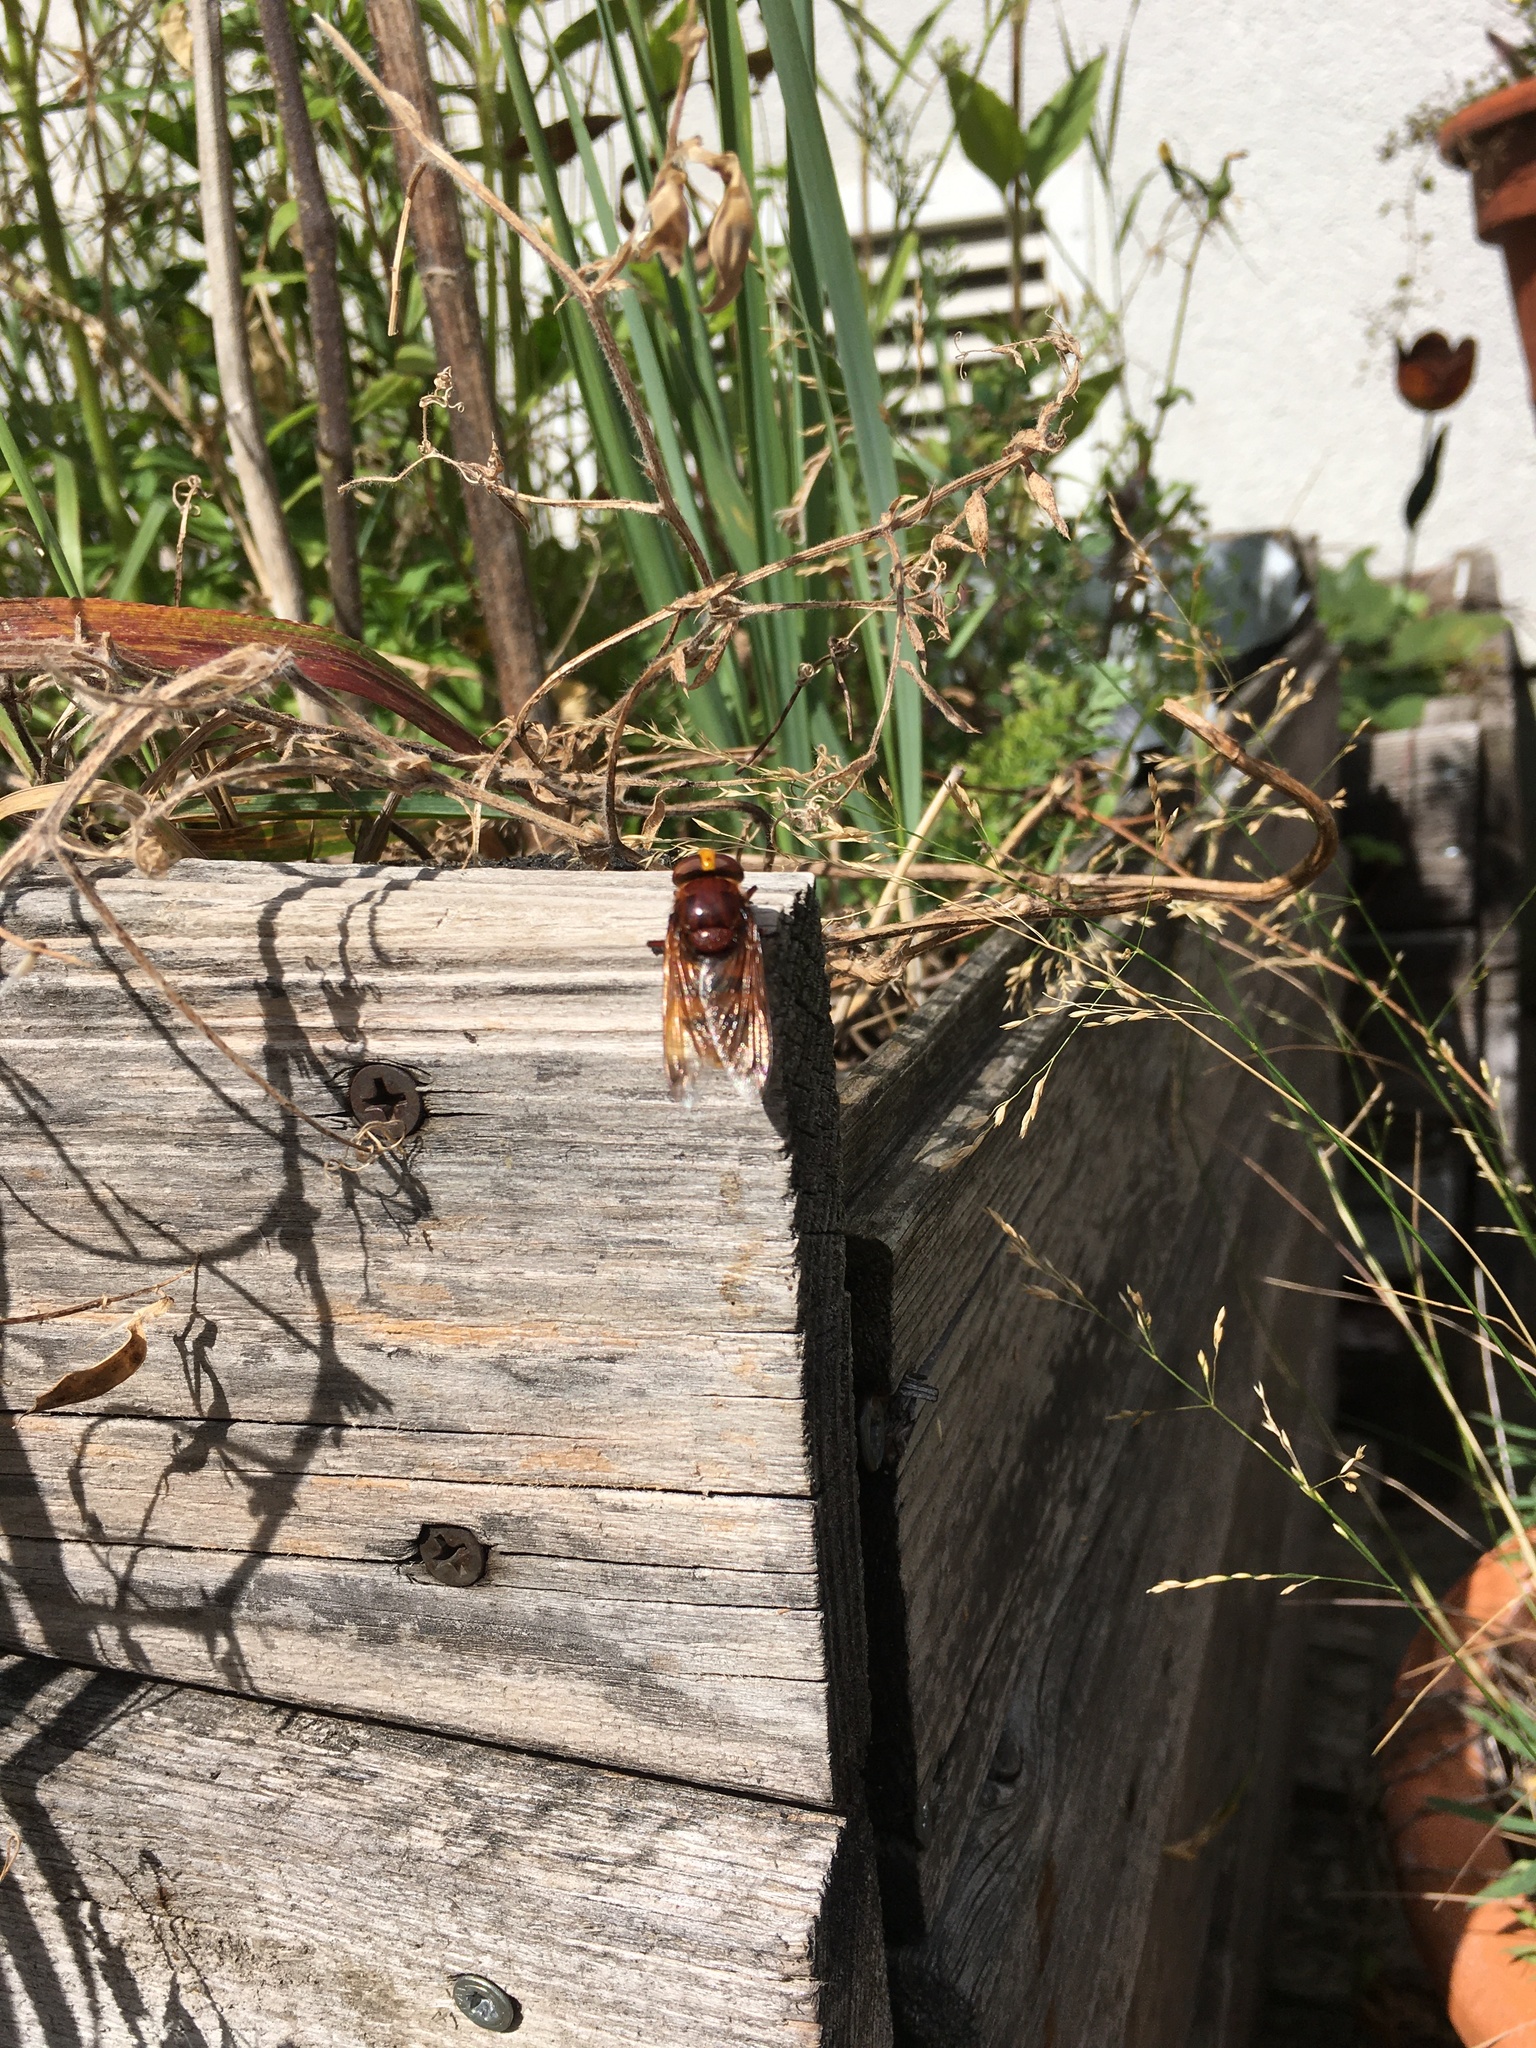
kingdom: Animalia
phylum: Arthropoda
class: Insecta
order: Diptera
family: Syrphidae
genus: Volucella
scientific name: Volucella zonaria
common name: Hornet hoverfly
